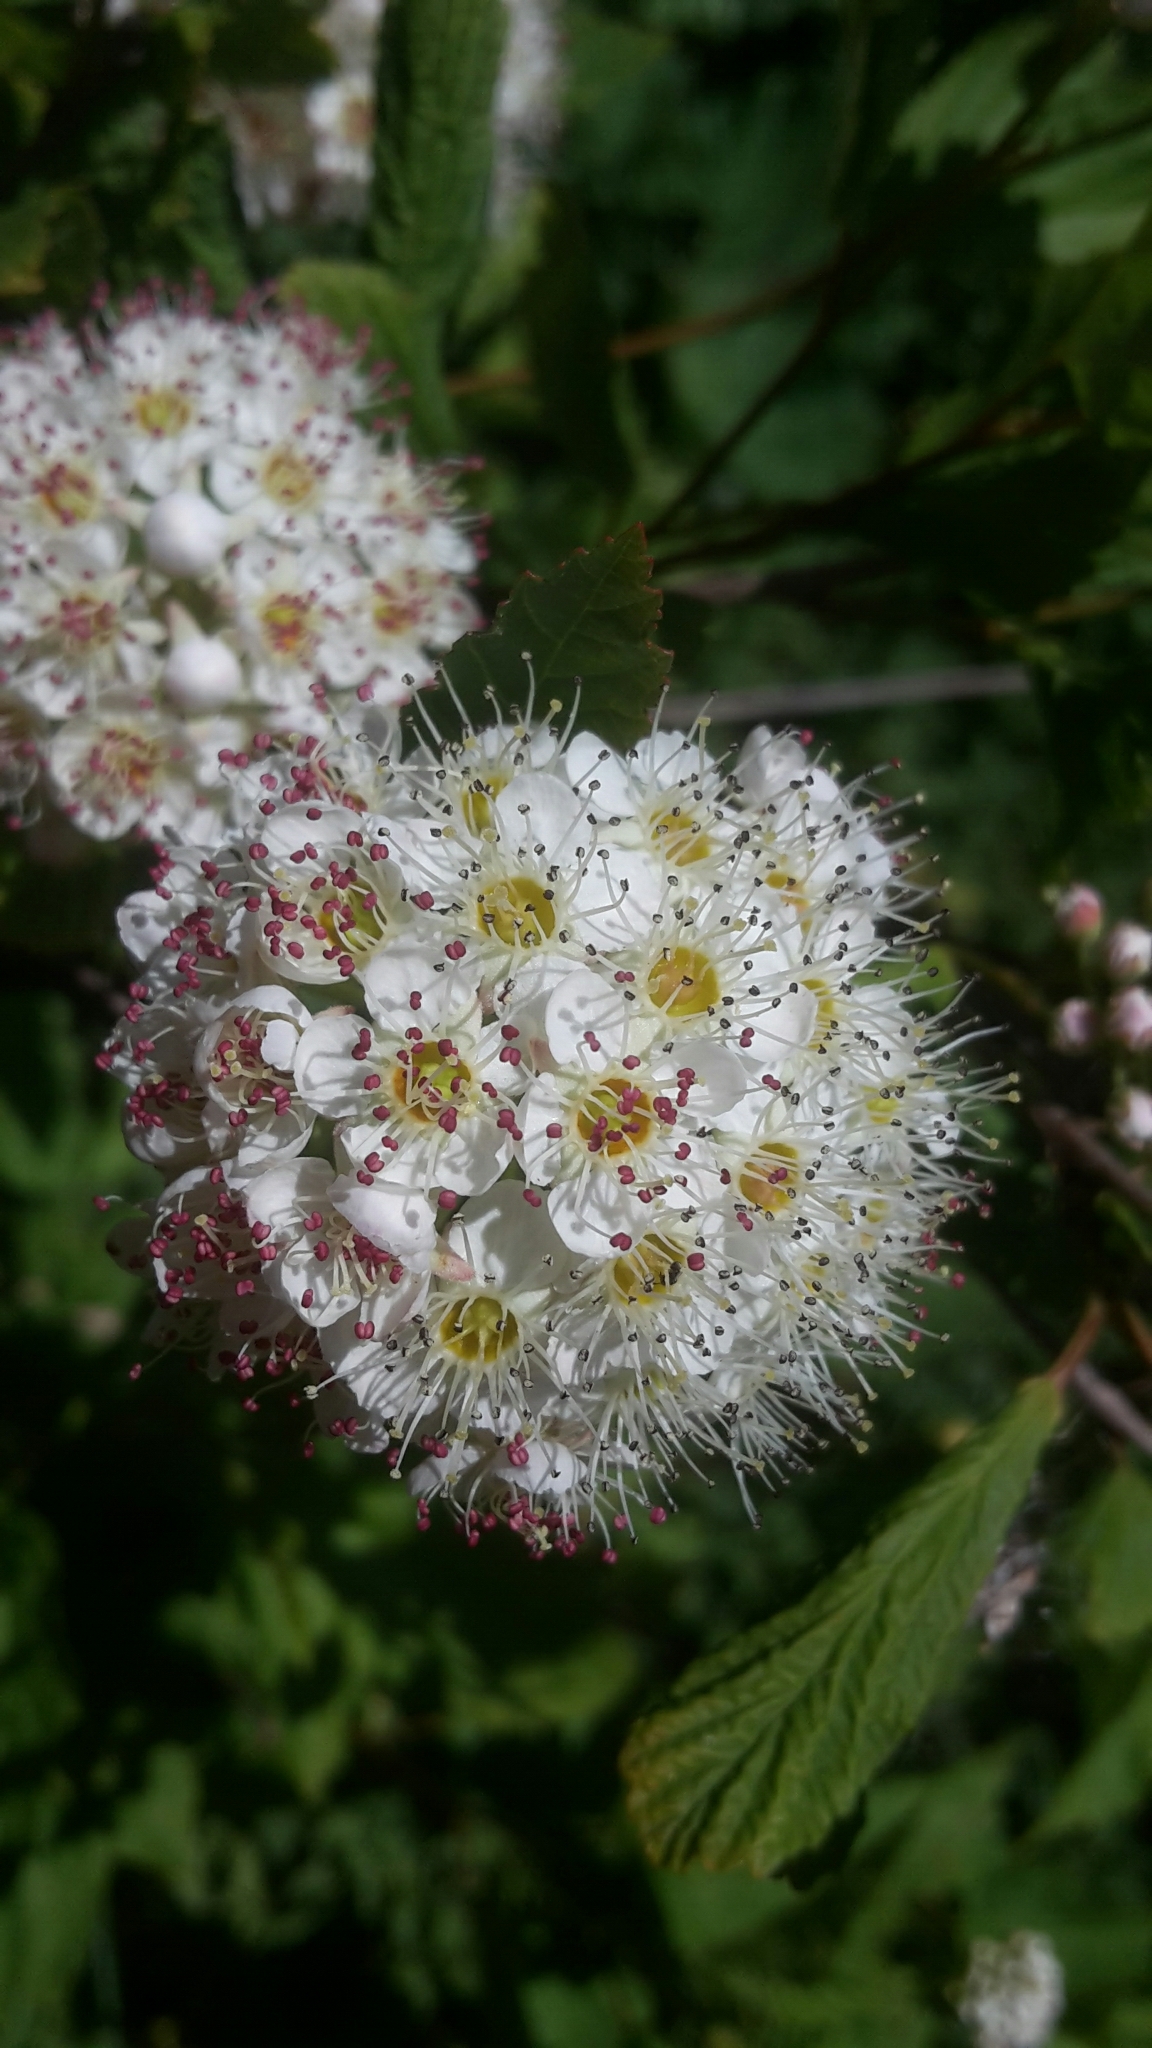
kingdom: Plantae
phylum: Tracheophyta
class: Magnoliopsida
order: Rosales
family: Rosaceae
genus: Physocarpus
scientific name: Physocarpus opulifolius
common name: Ninebark
